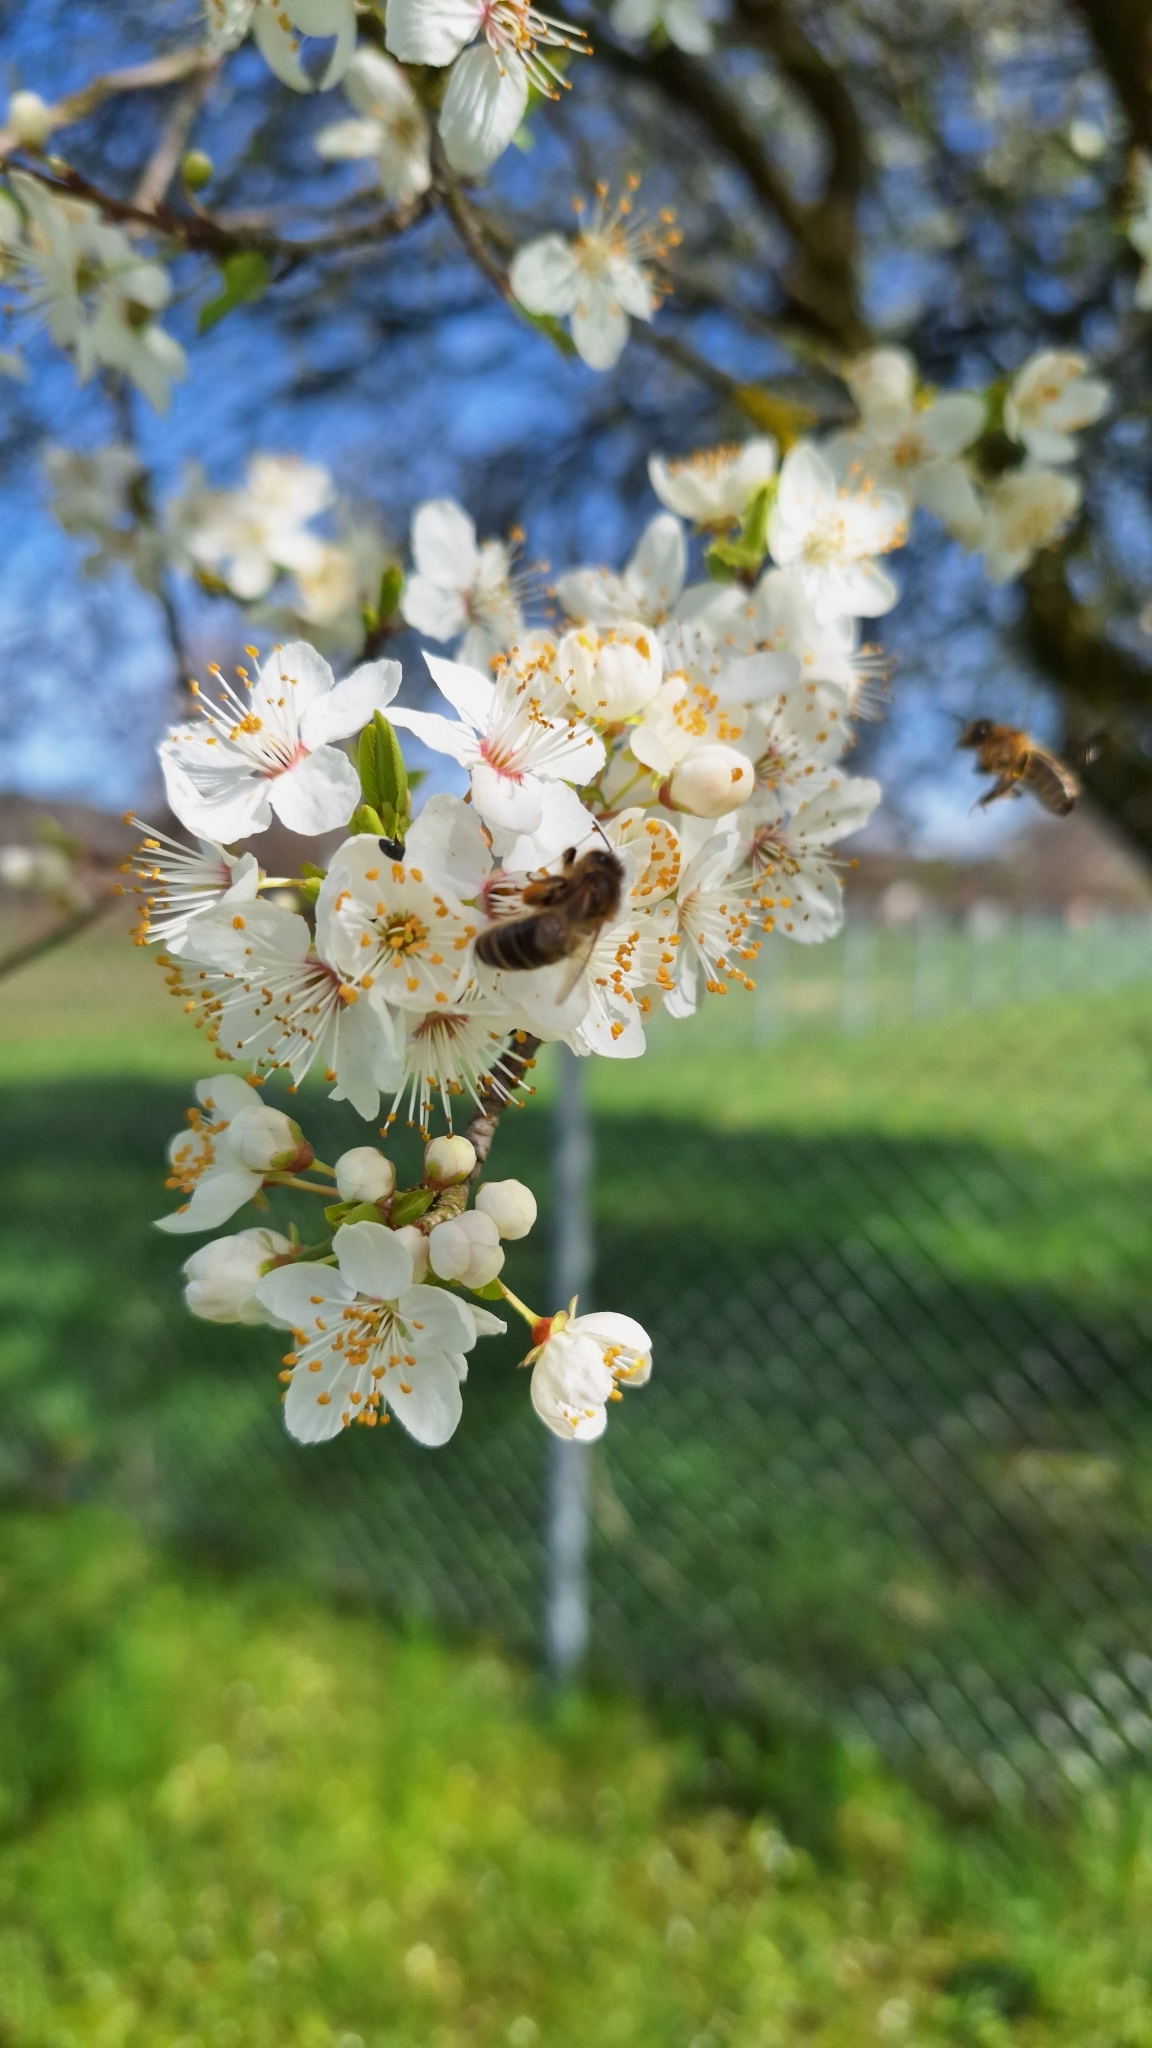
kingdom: Animalia
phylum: Arthropoda
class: Insecta
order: Hymenoptera
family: Apidae
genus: Apis
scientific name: Apis mellifera
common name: Honey bee
